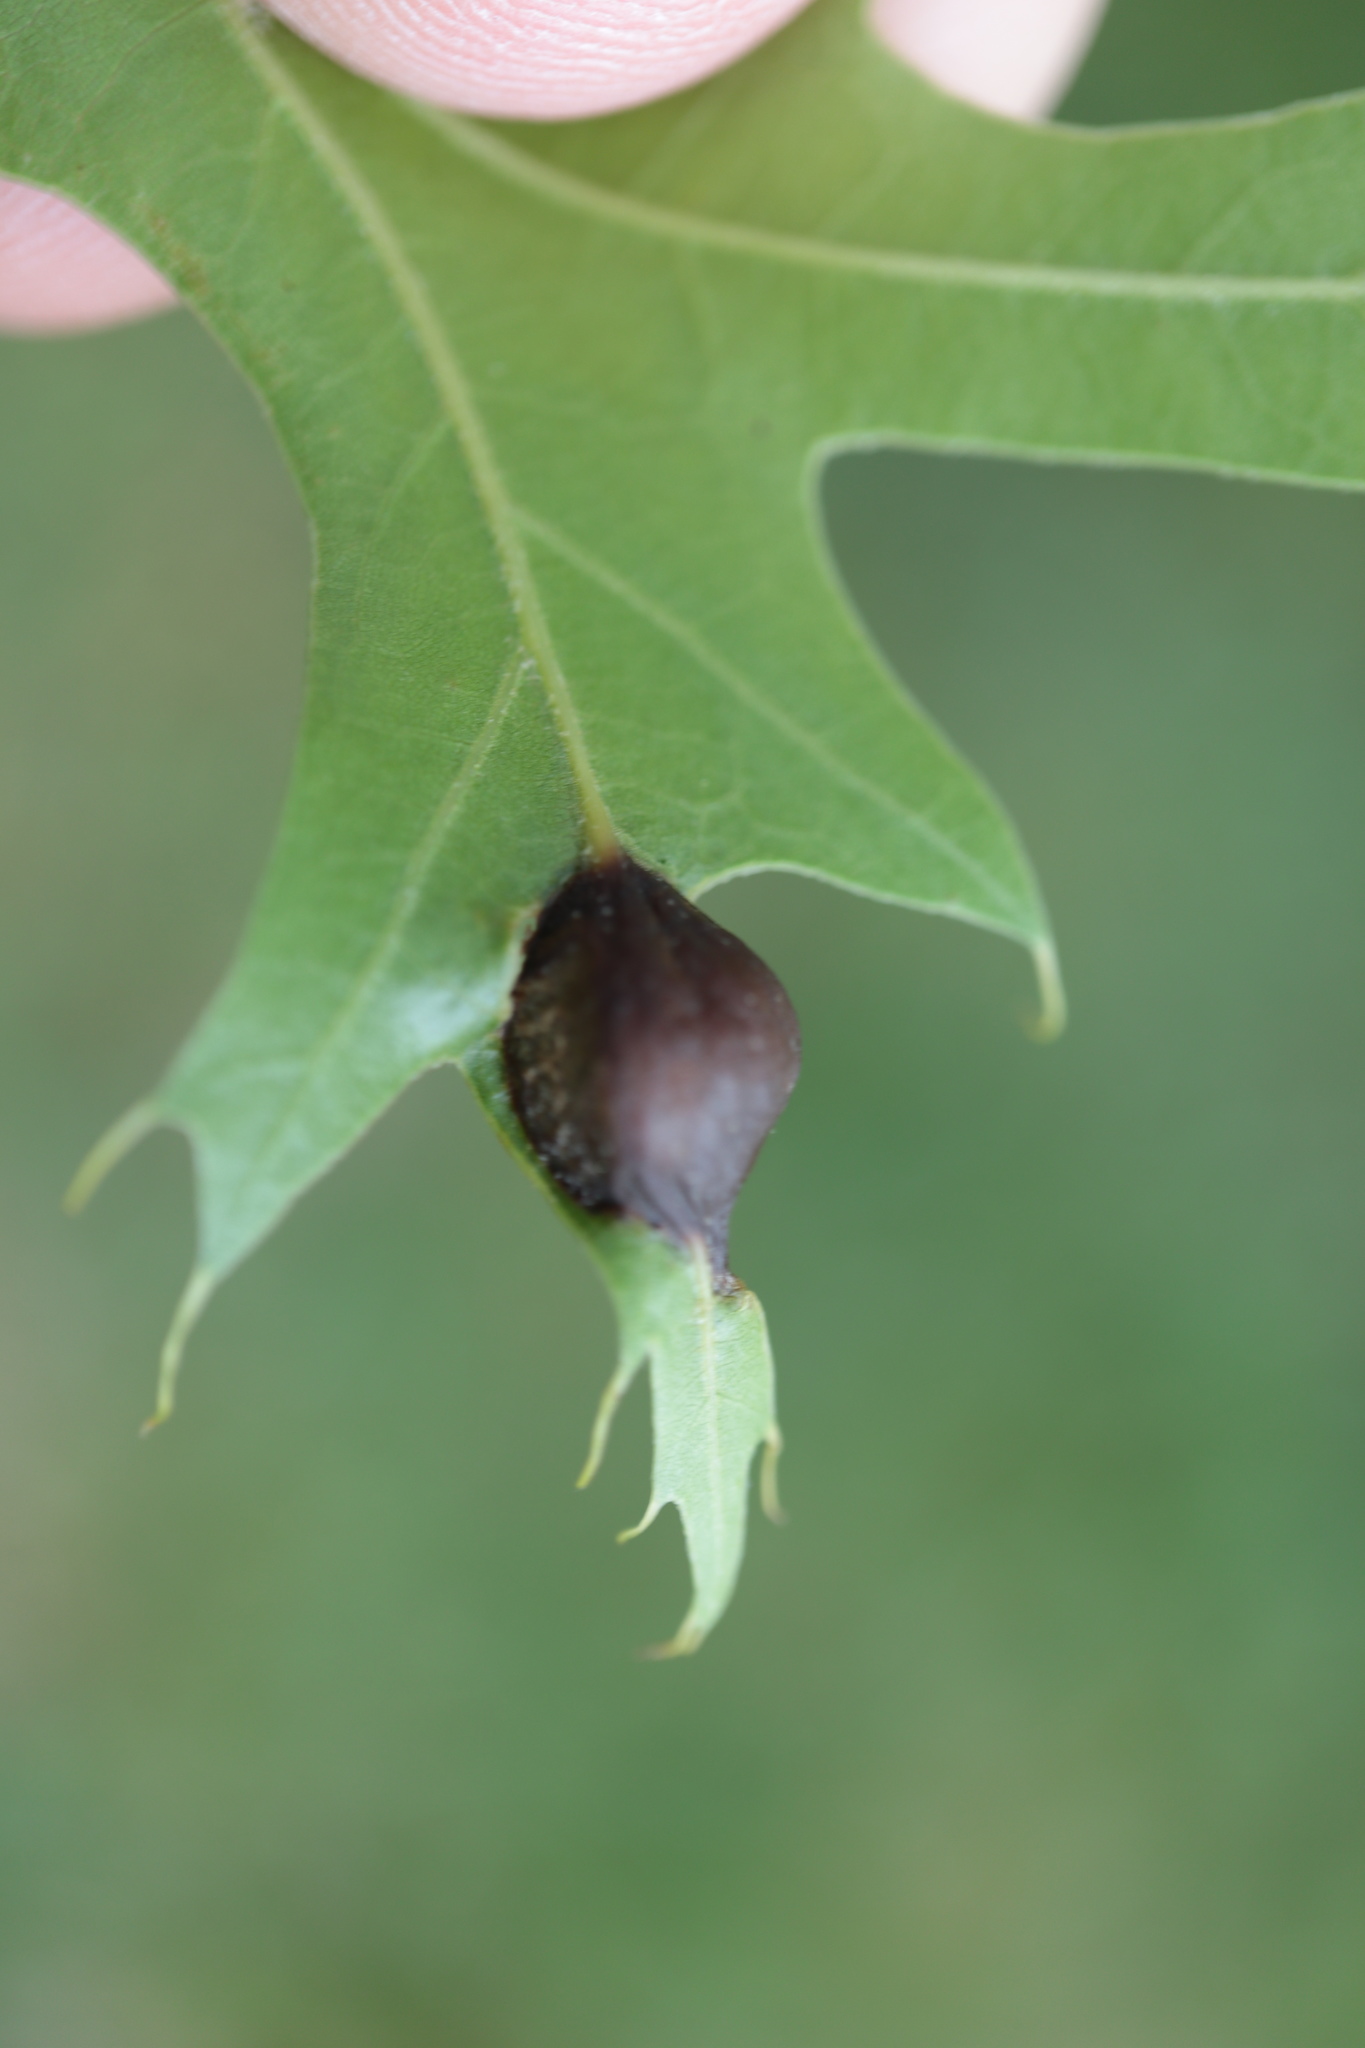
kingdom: Animalia
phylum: Arthropoda
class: Insecta
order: Hymenoptera
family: Cynipidae
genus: Dryocosmus
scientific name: Dryocosmus
